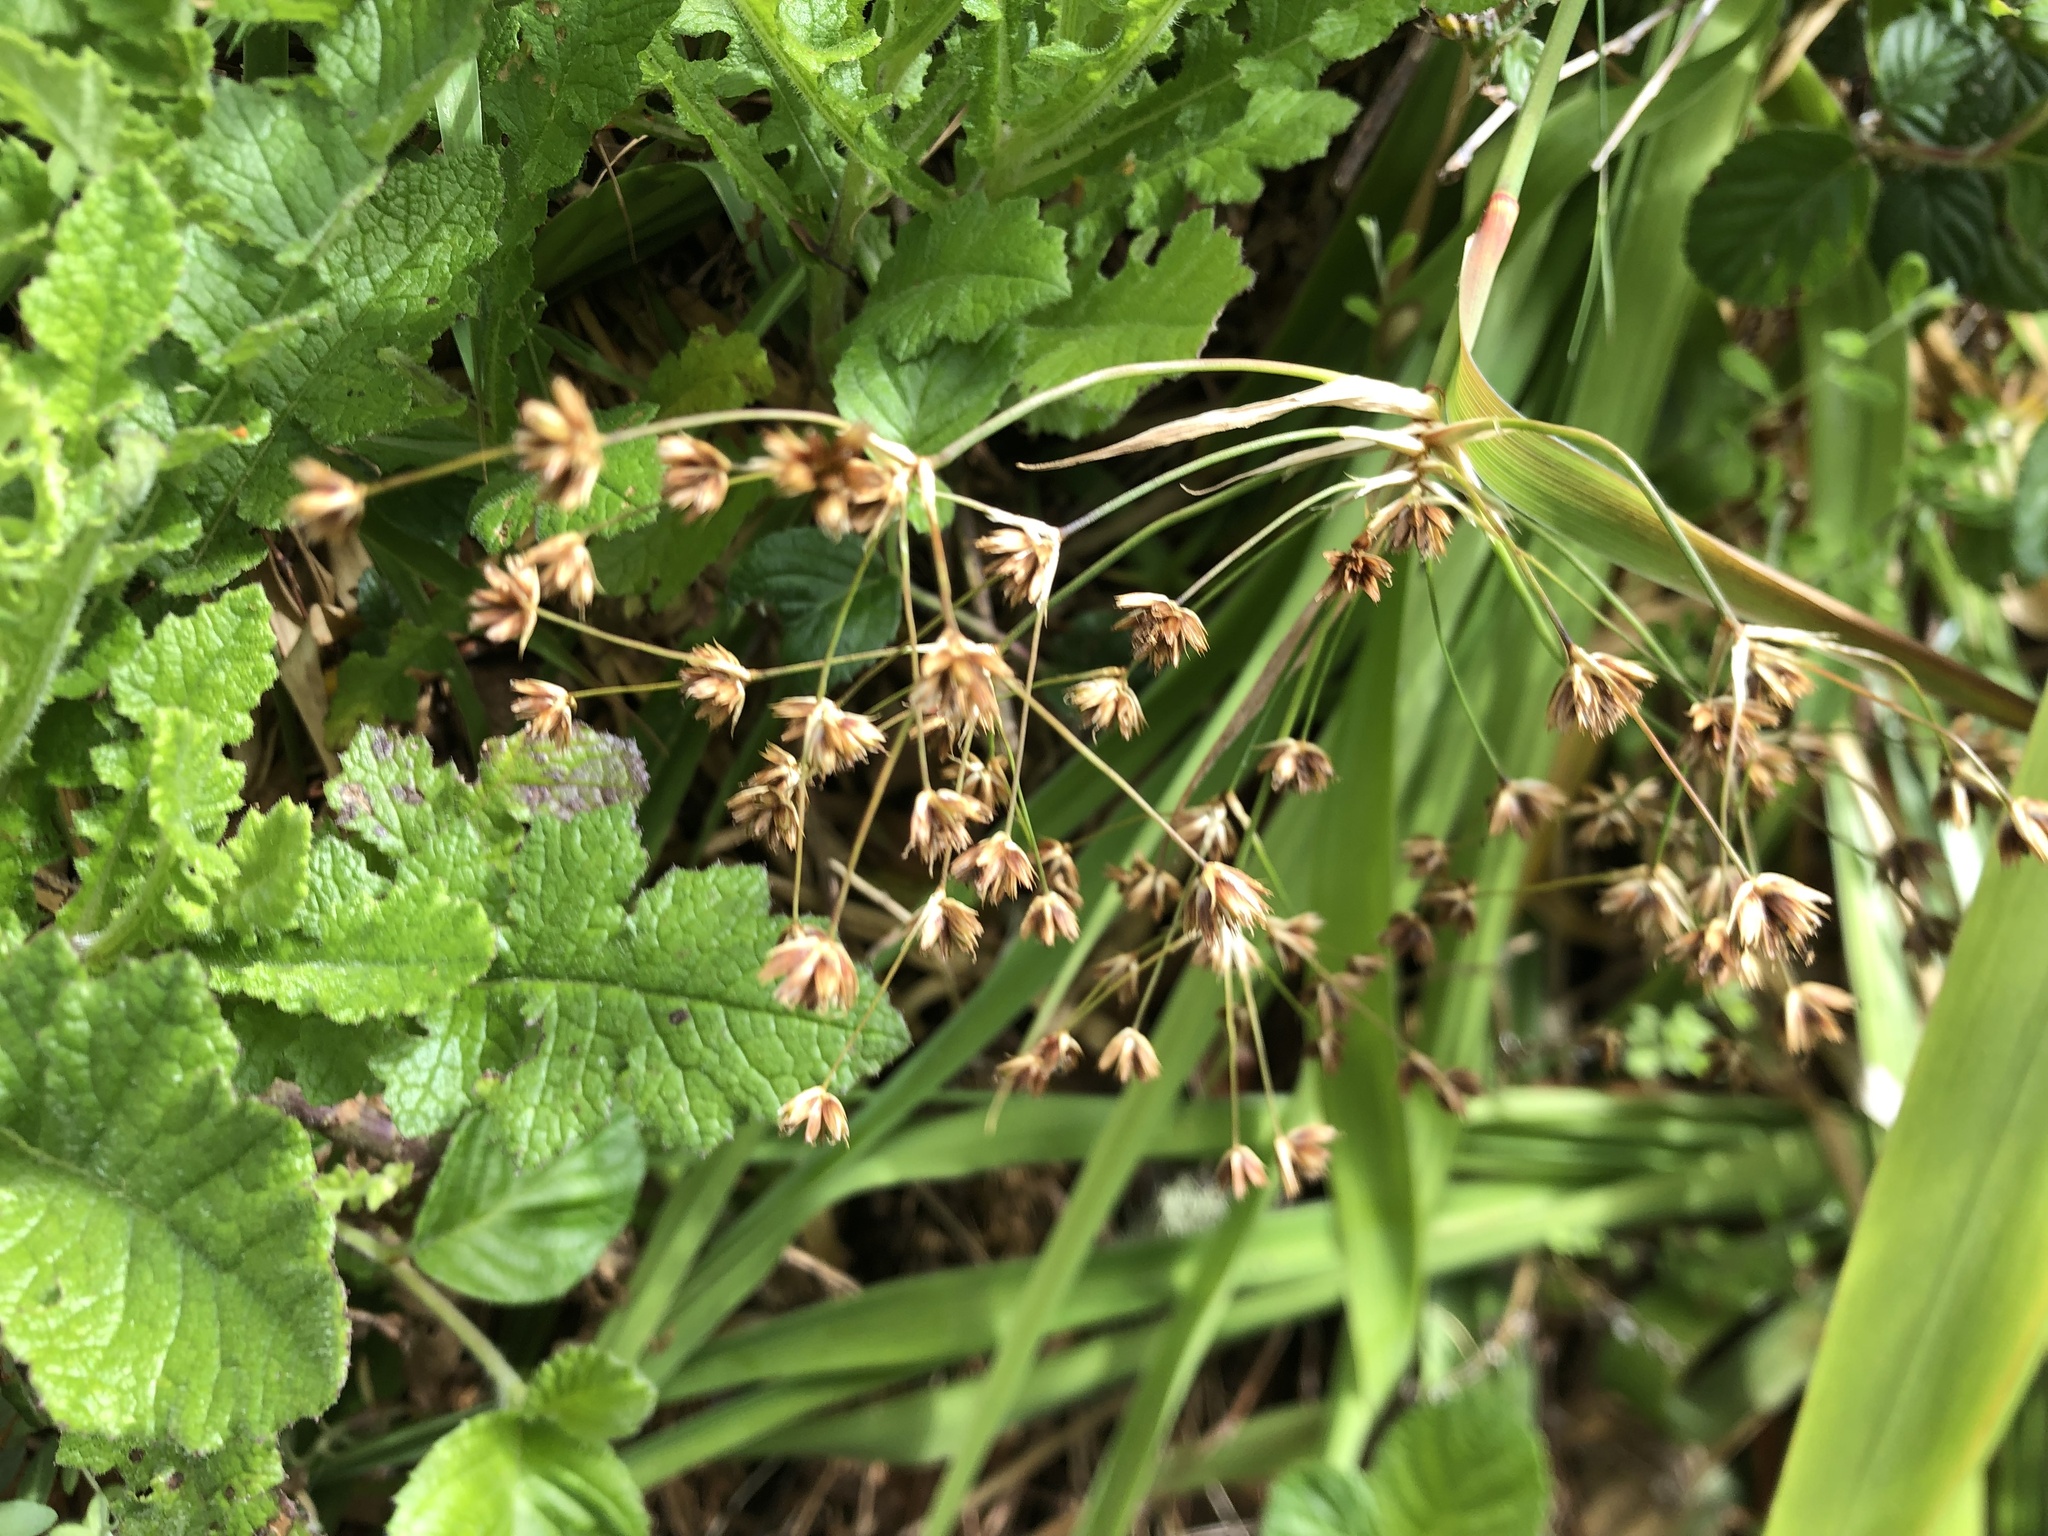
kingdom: Plantae
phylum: Tracheophyta
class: Liliopsida
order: Poales
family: Juncaceae
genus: Juncus
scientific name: Juncus lomatophyllus
